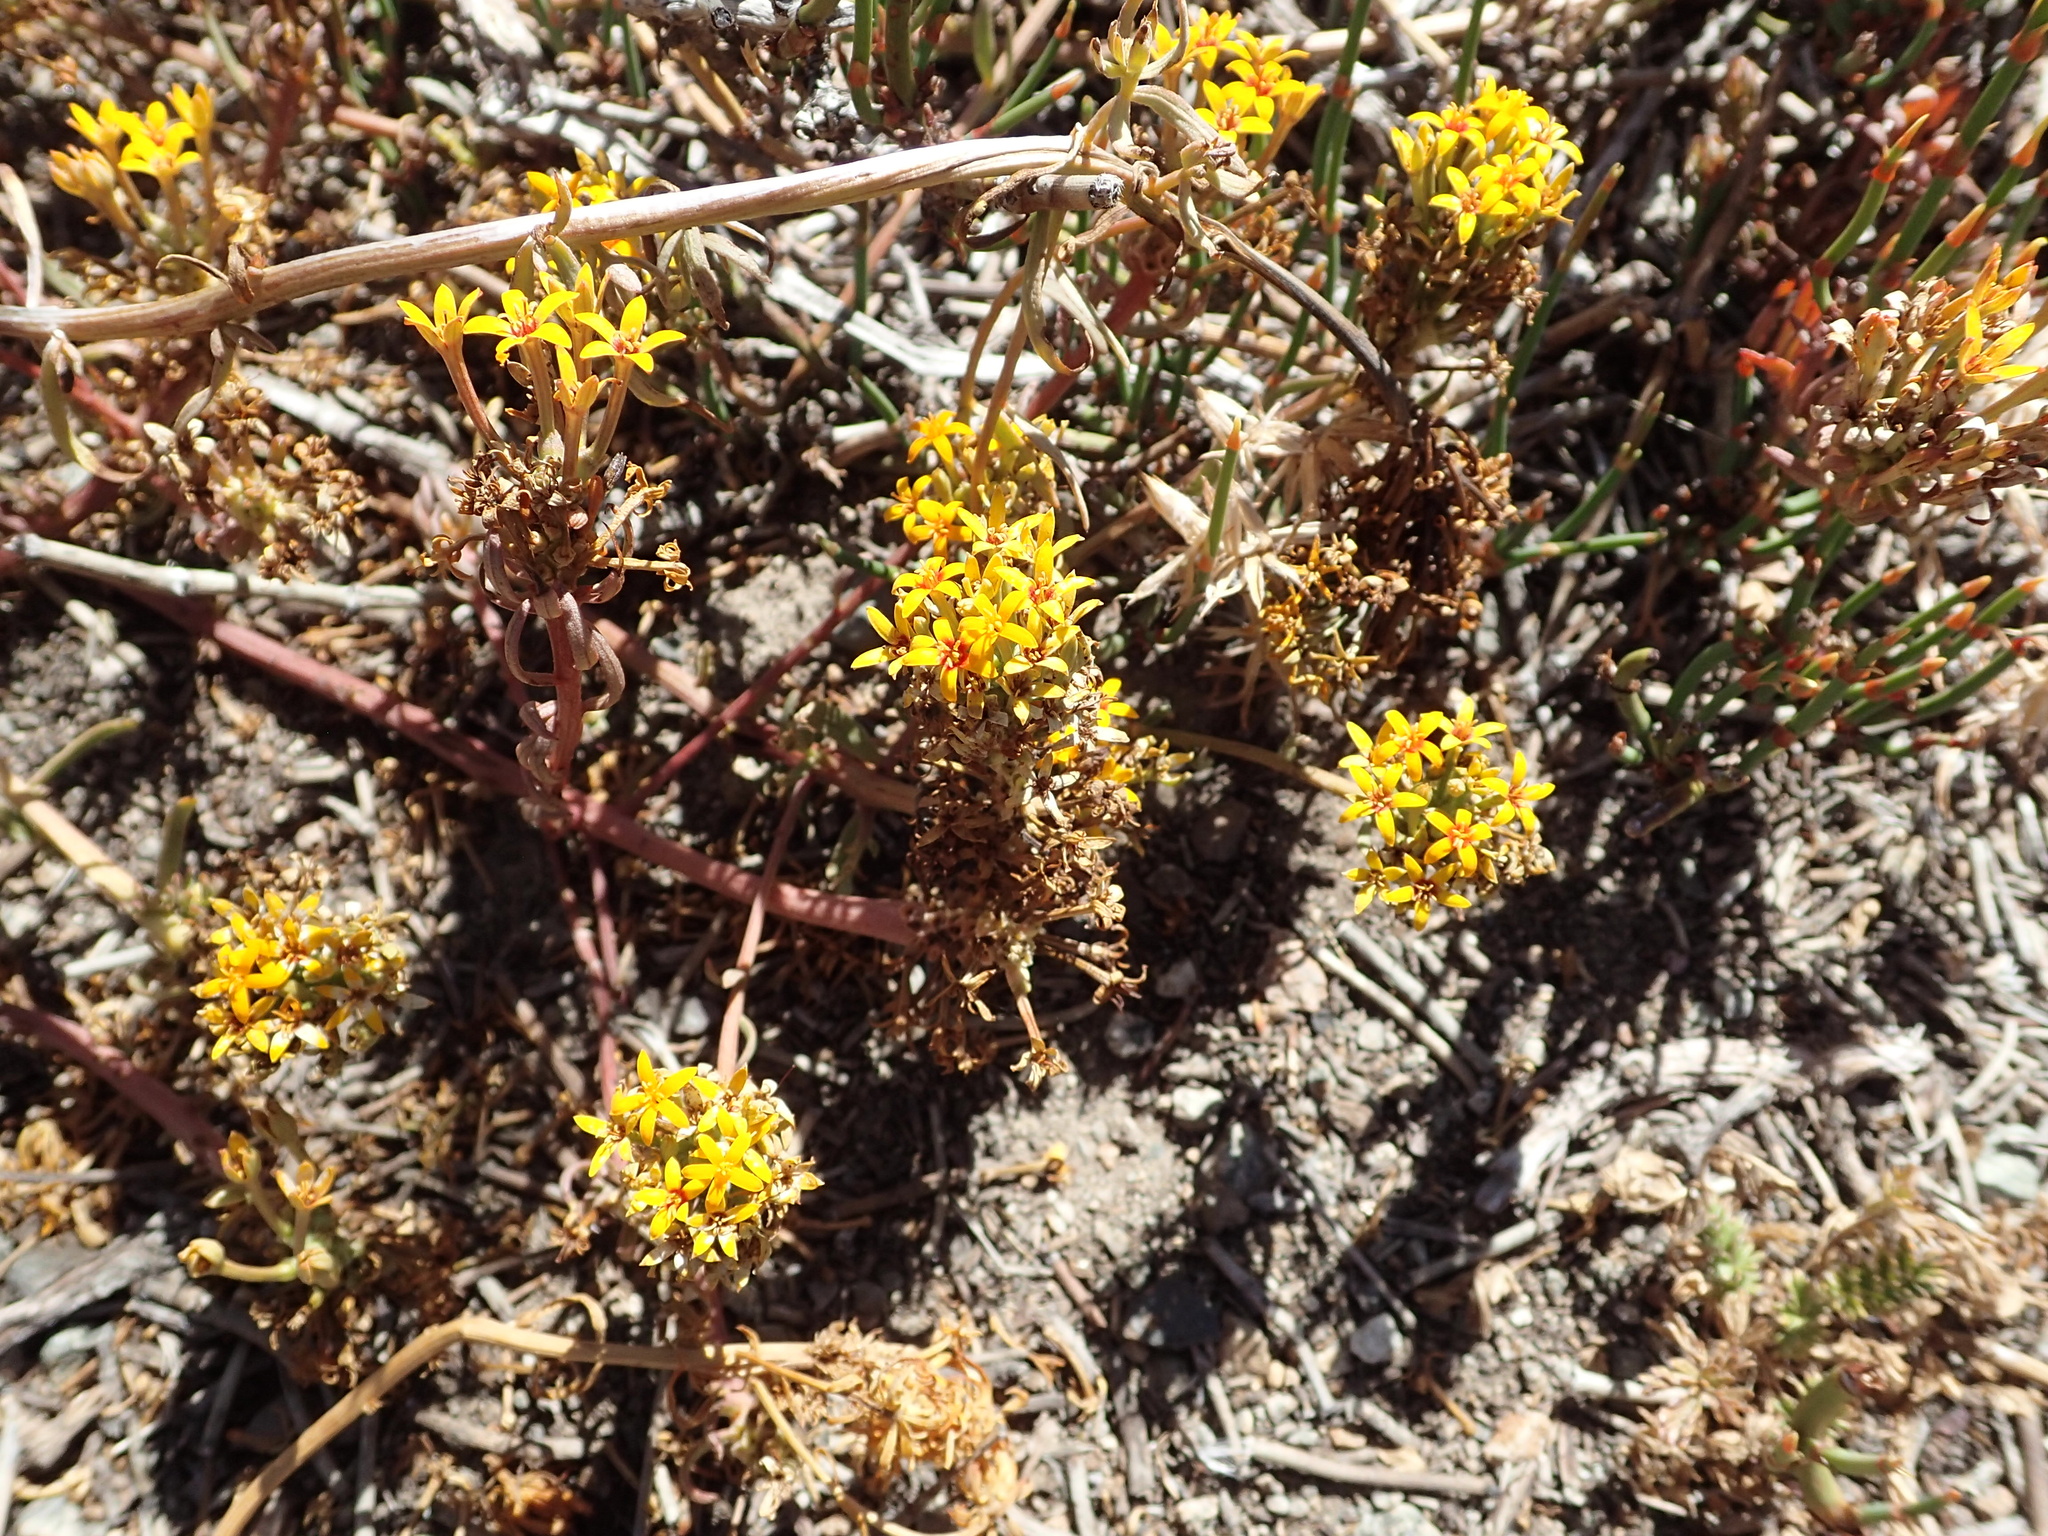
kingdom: Plantae
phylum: Tracheophyta
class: Magnoliopsida
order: Santalales
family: Schoepfiaceae
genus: Quinchamalium
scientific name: Quinchamalium chilense
